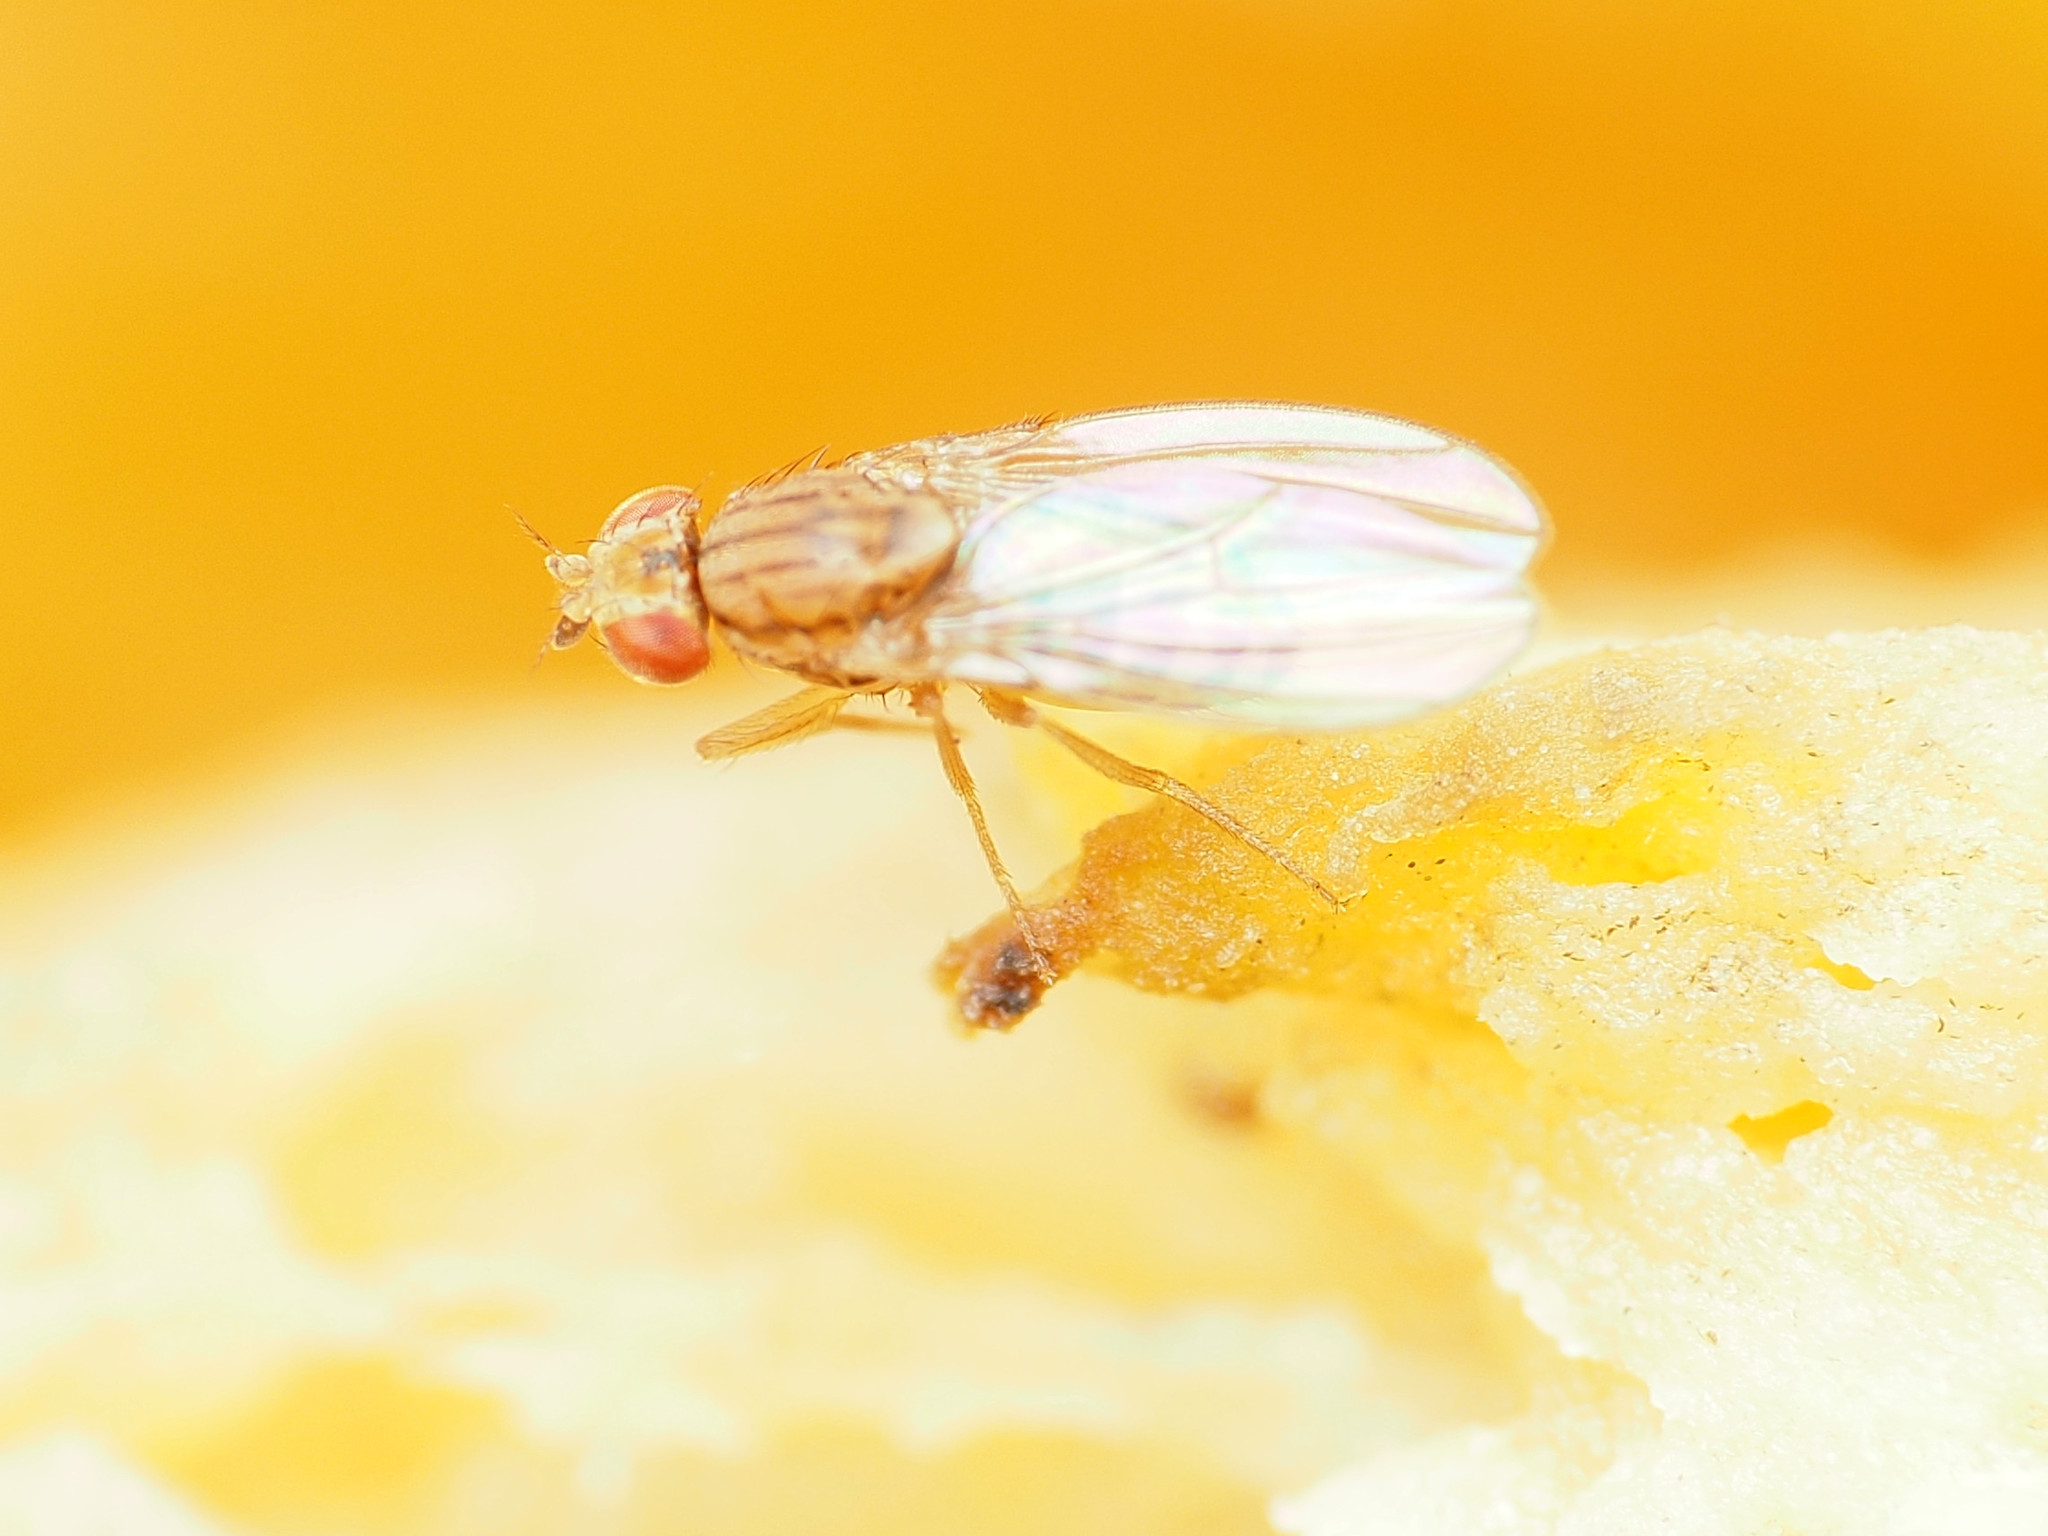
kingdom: Animalia
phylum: Arthropoda
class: Insecta
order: Diptera
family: Drosophilidae
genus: Drosophila
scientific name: Drosophila busckii
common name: Pomace fly
